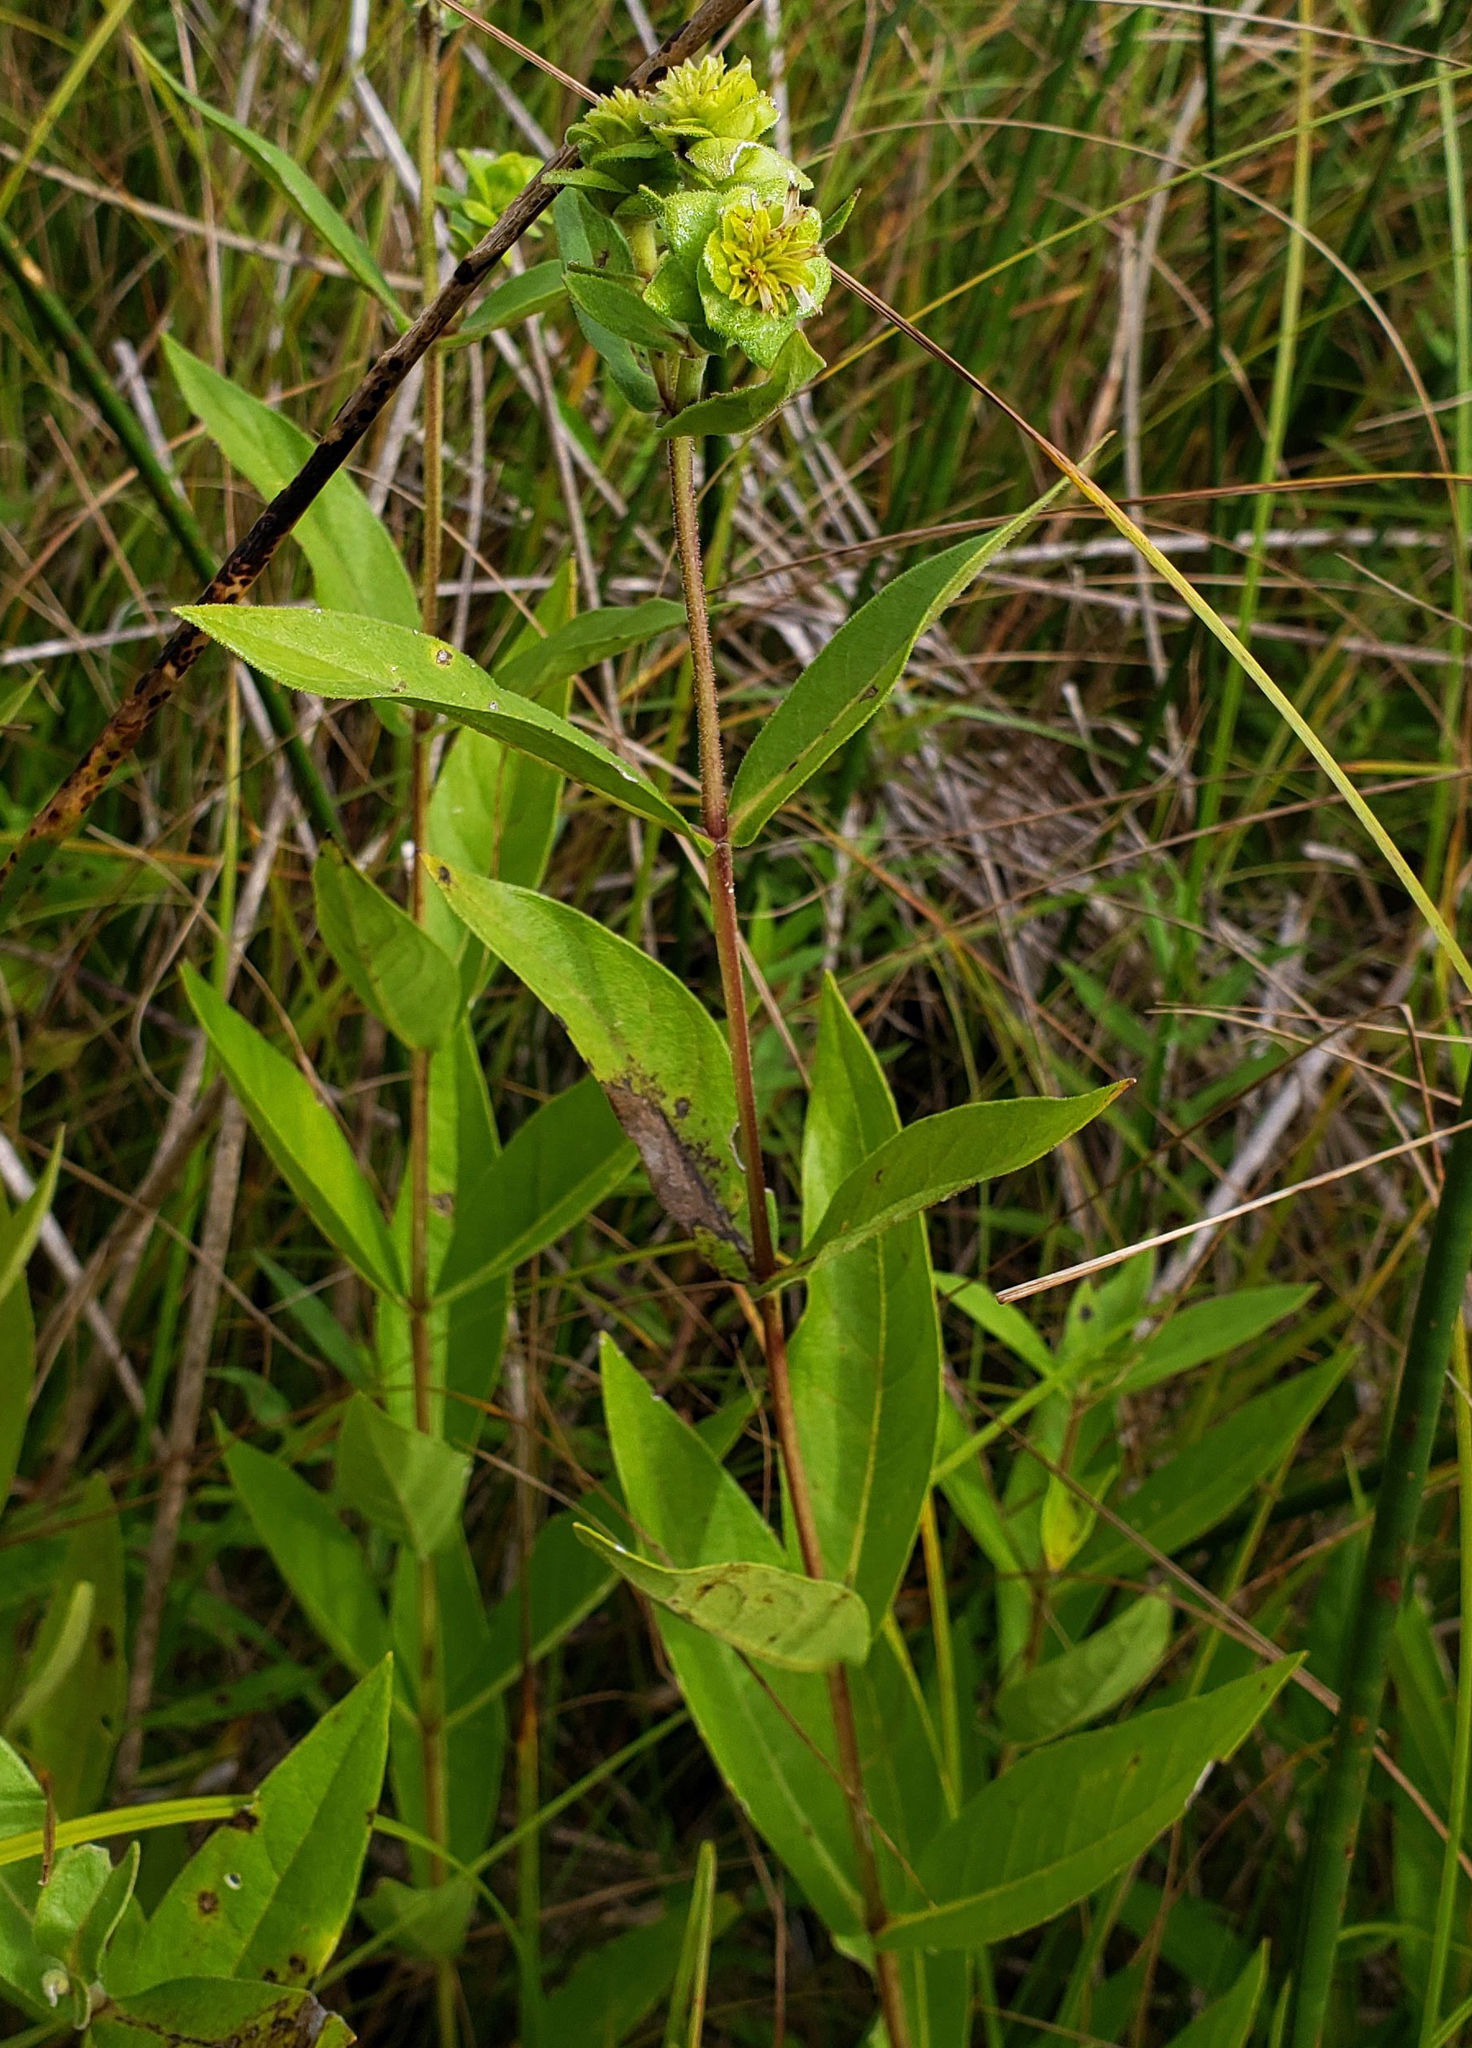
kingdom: Plantae
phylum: Tracheophyta
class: Magnoliopsida
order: Asterales
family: Asteraceae
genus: Silphium
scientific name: Silphium integrifolium
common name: Whole-leaf rosinweed
